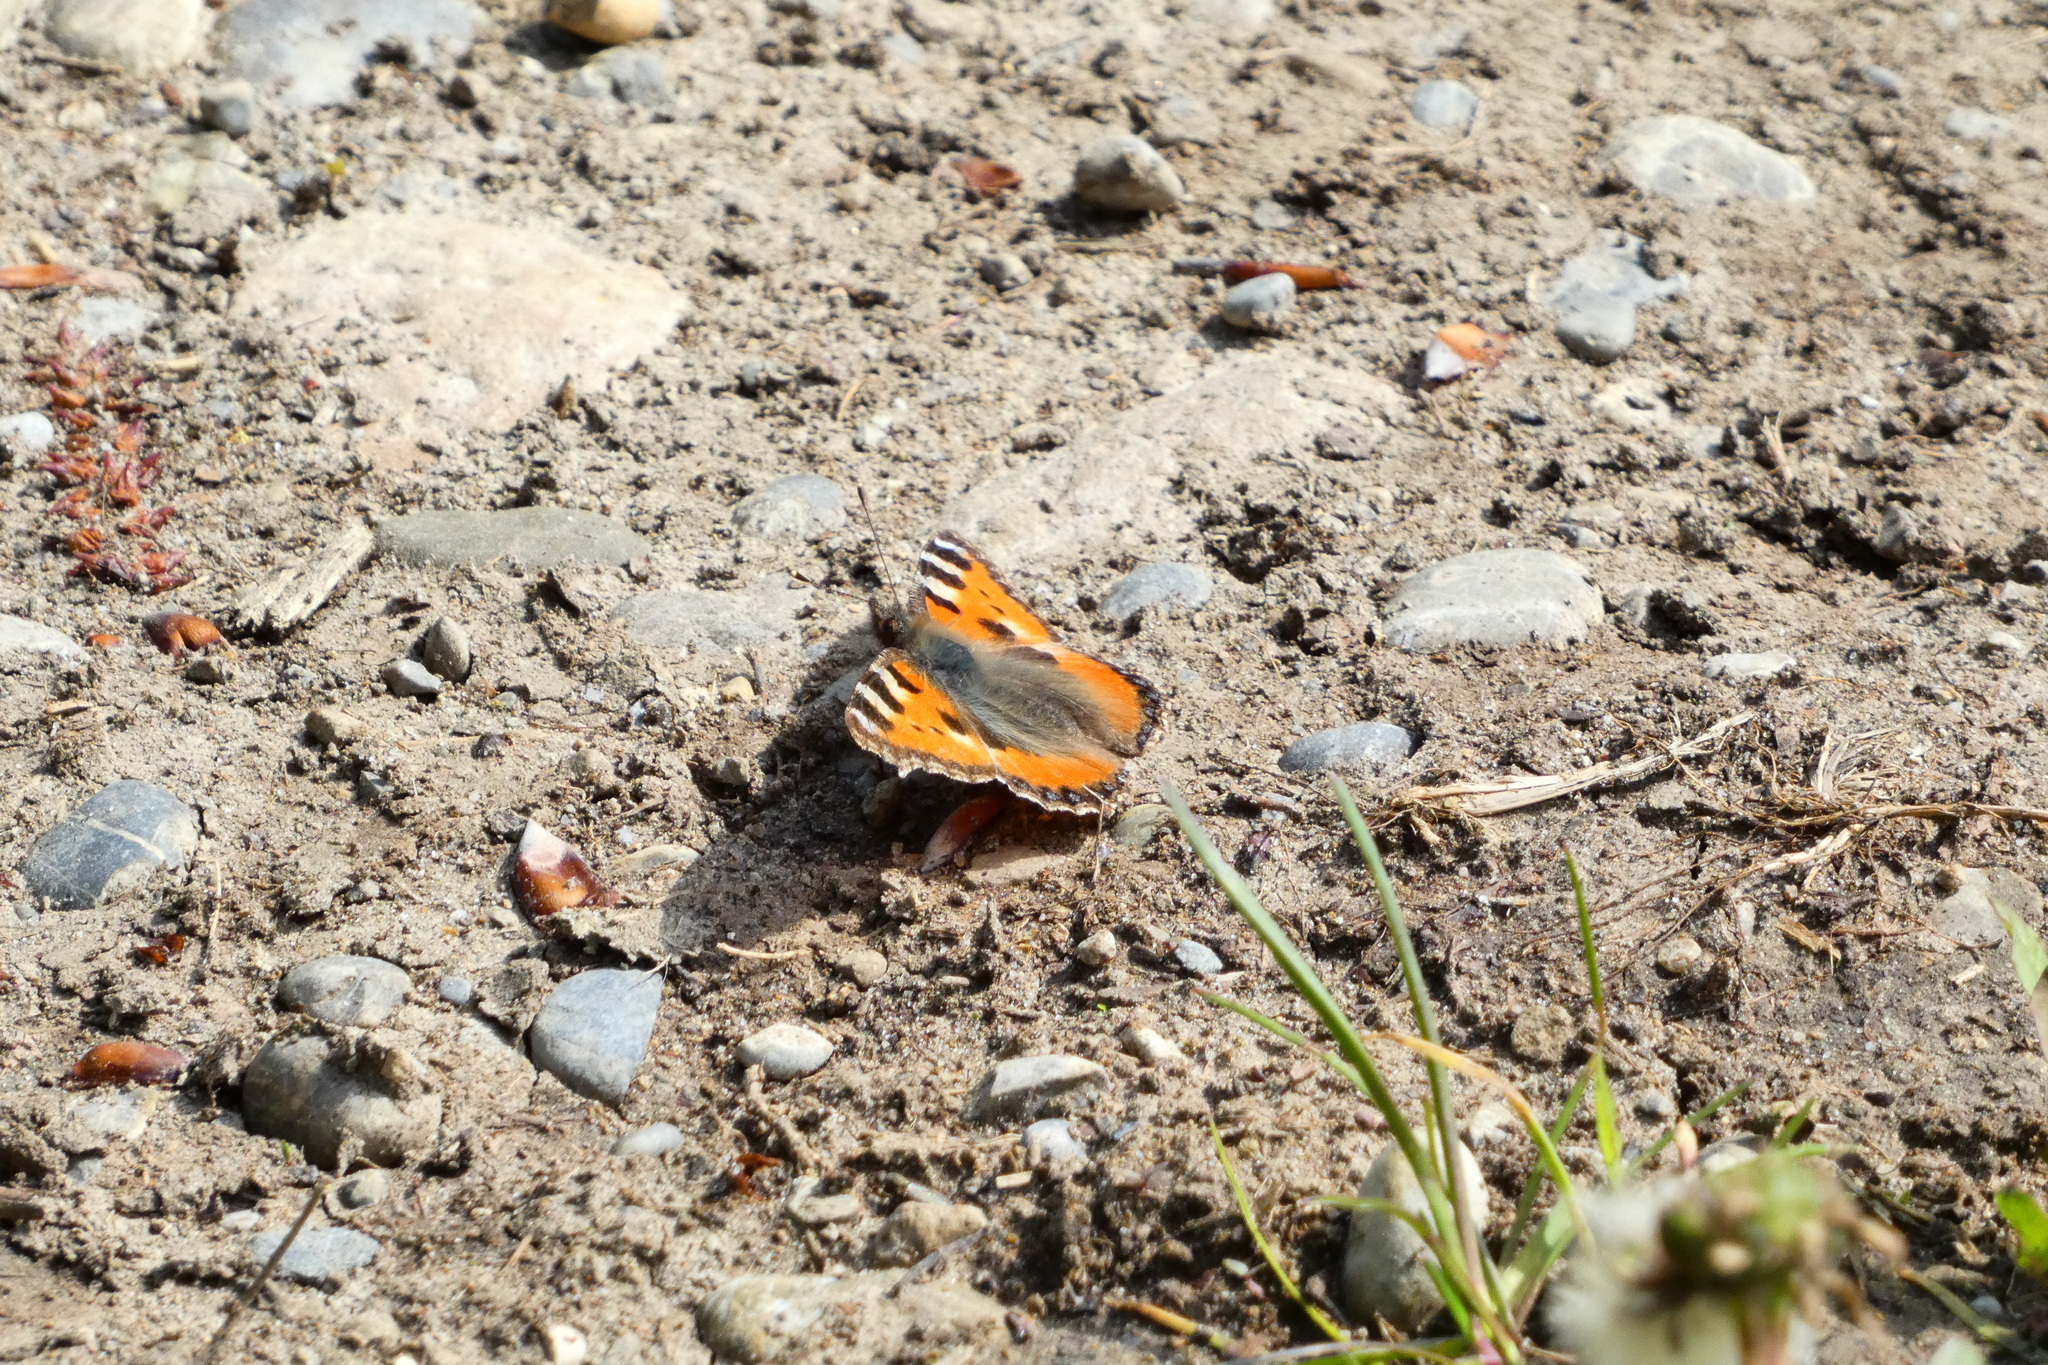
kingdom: Animalia
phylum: Arthropoda
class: Insecta
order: Lepidoptera
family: Nymphalidae
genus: Aglais
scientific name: Aglais urticae
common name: Small tortoiseshell
